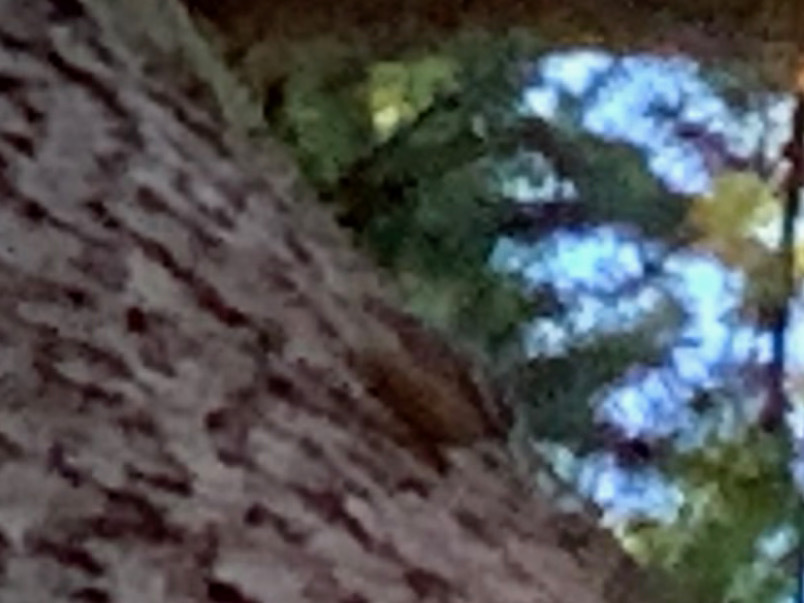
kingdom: Animalia
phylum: Chordata
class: Aves
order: Passeriformes
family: Sittidae
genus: Sitta
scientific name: Sitta canadensis
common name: Red-breasted nuthatch
